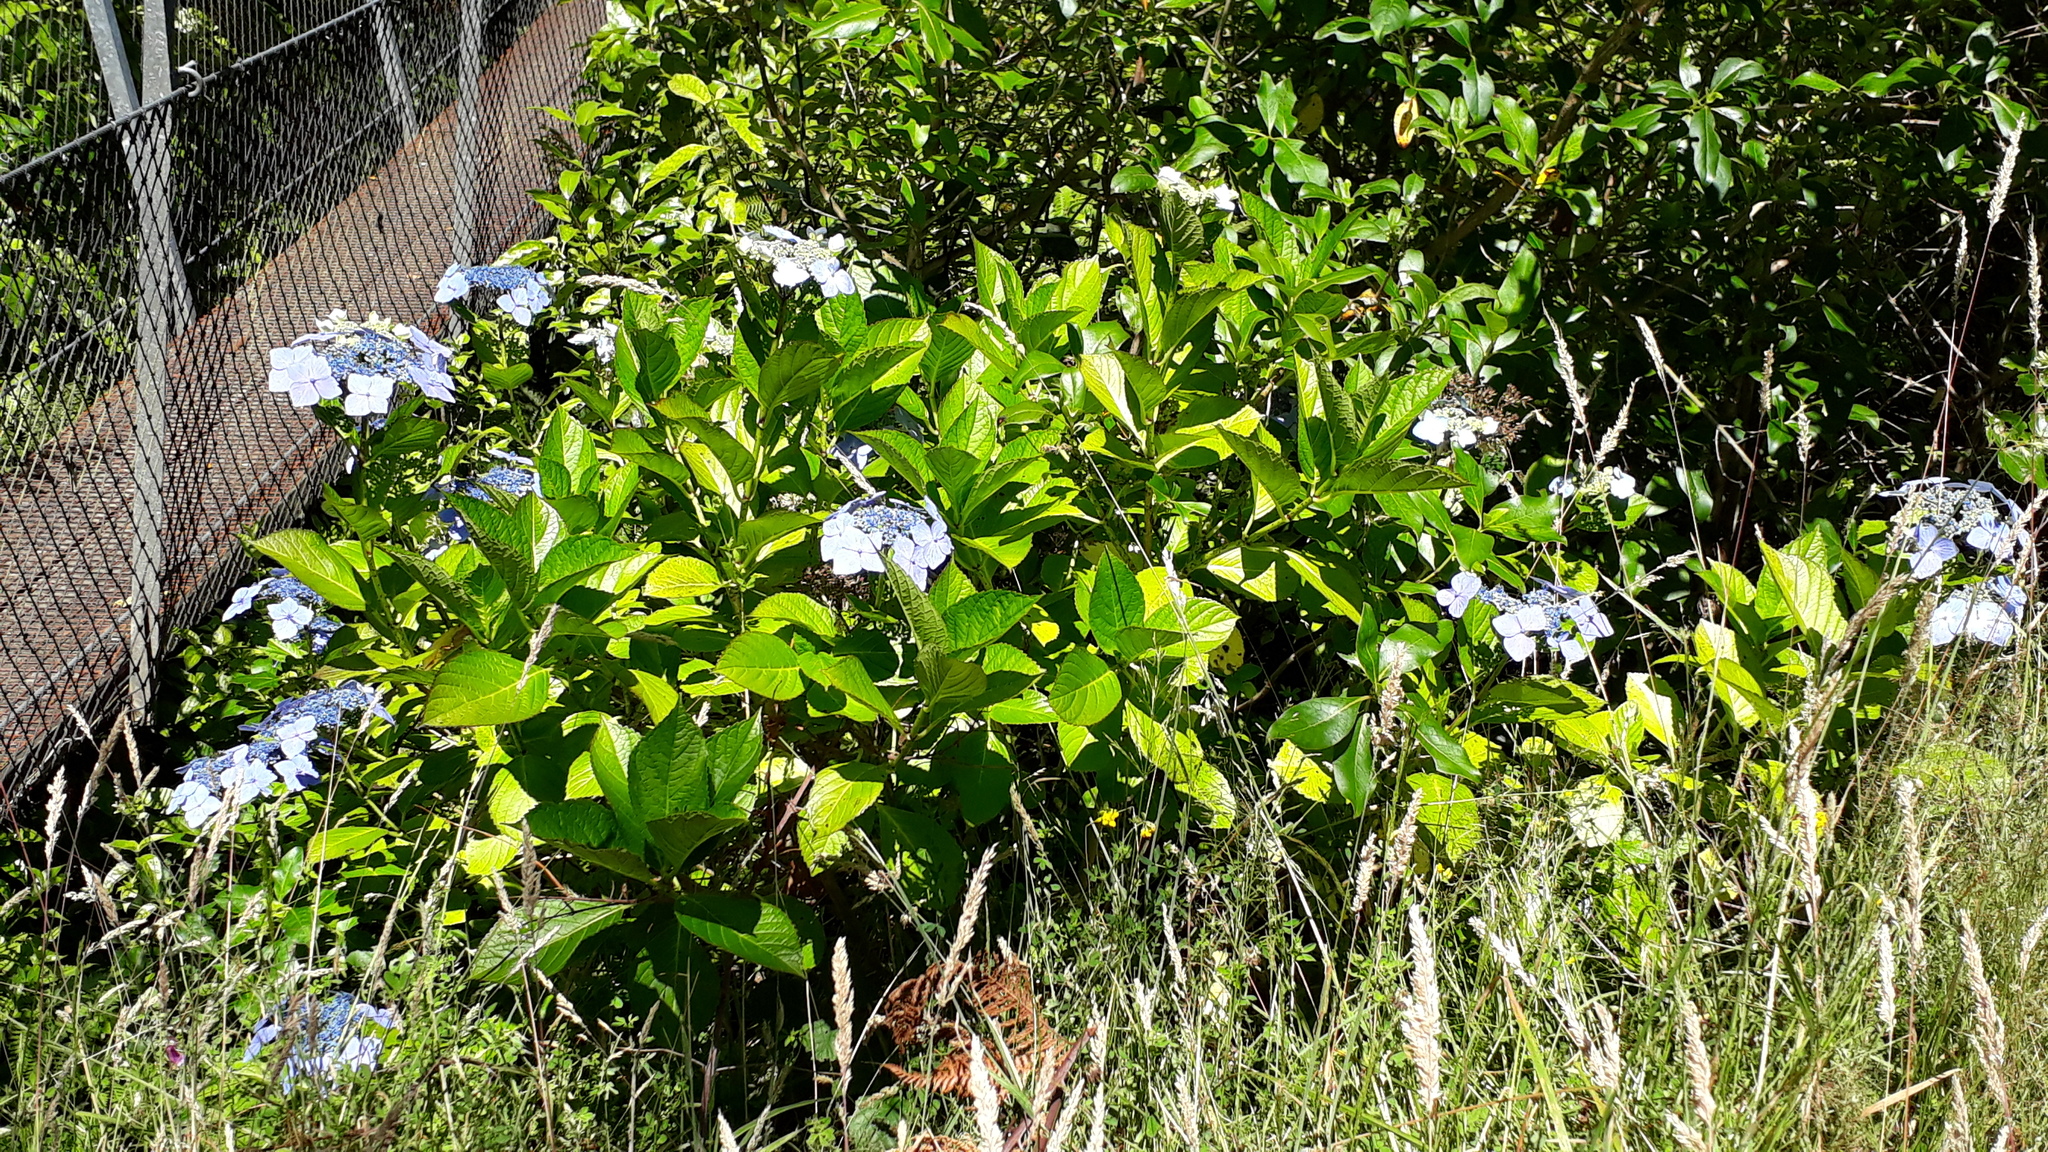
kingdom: Plantae
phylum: Tracheophyta
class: Magnoliopsida
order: Cornales
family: Hydrangeaceae
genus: Hydrangea
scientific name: Hydrangea macrophylla
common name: Hydrangea
